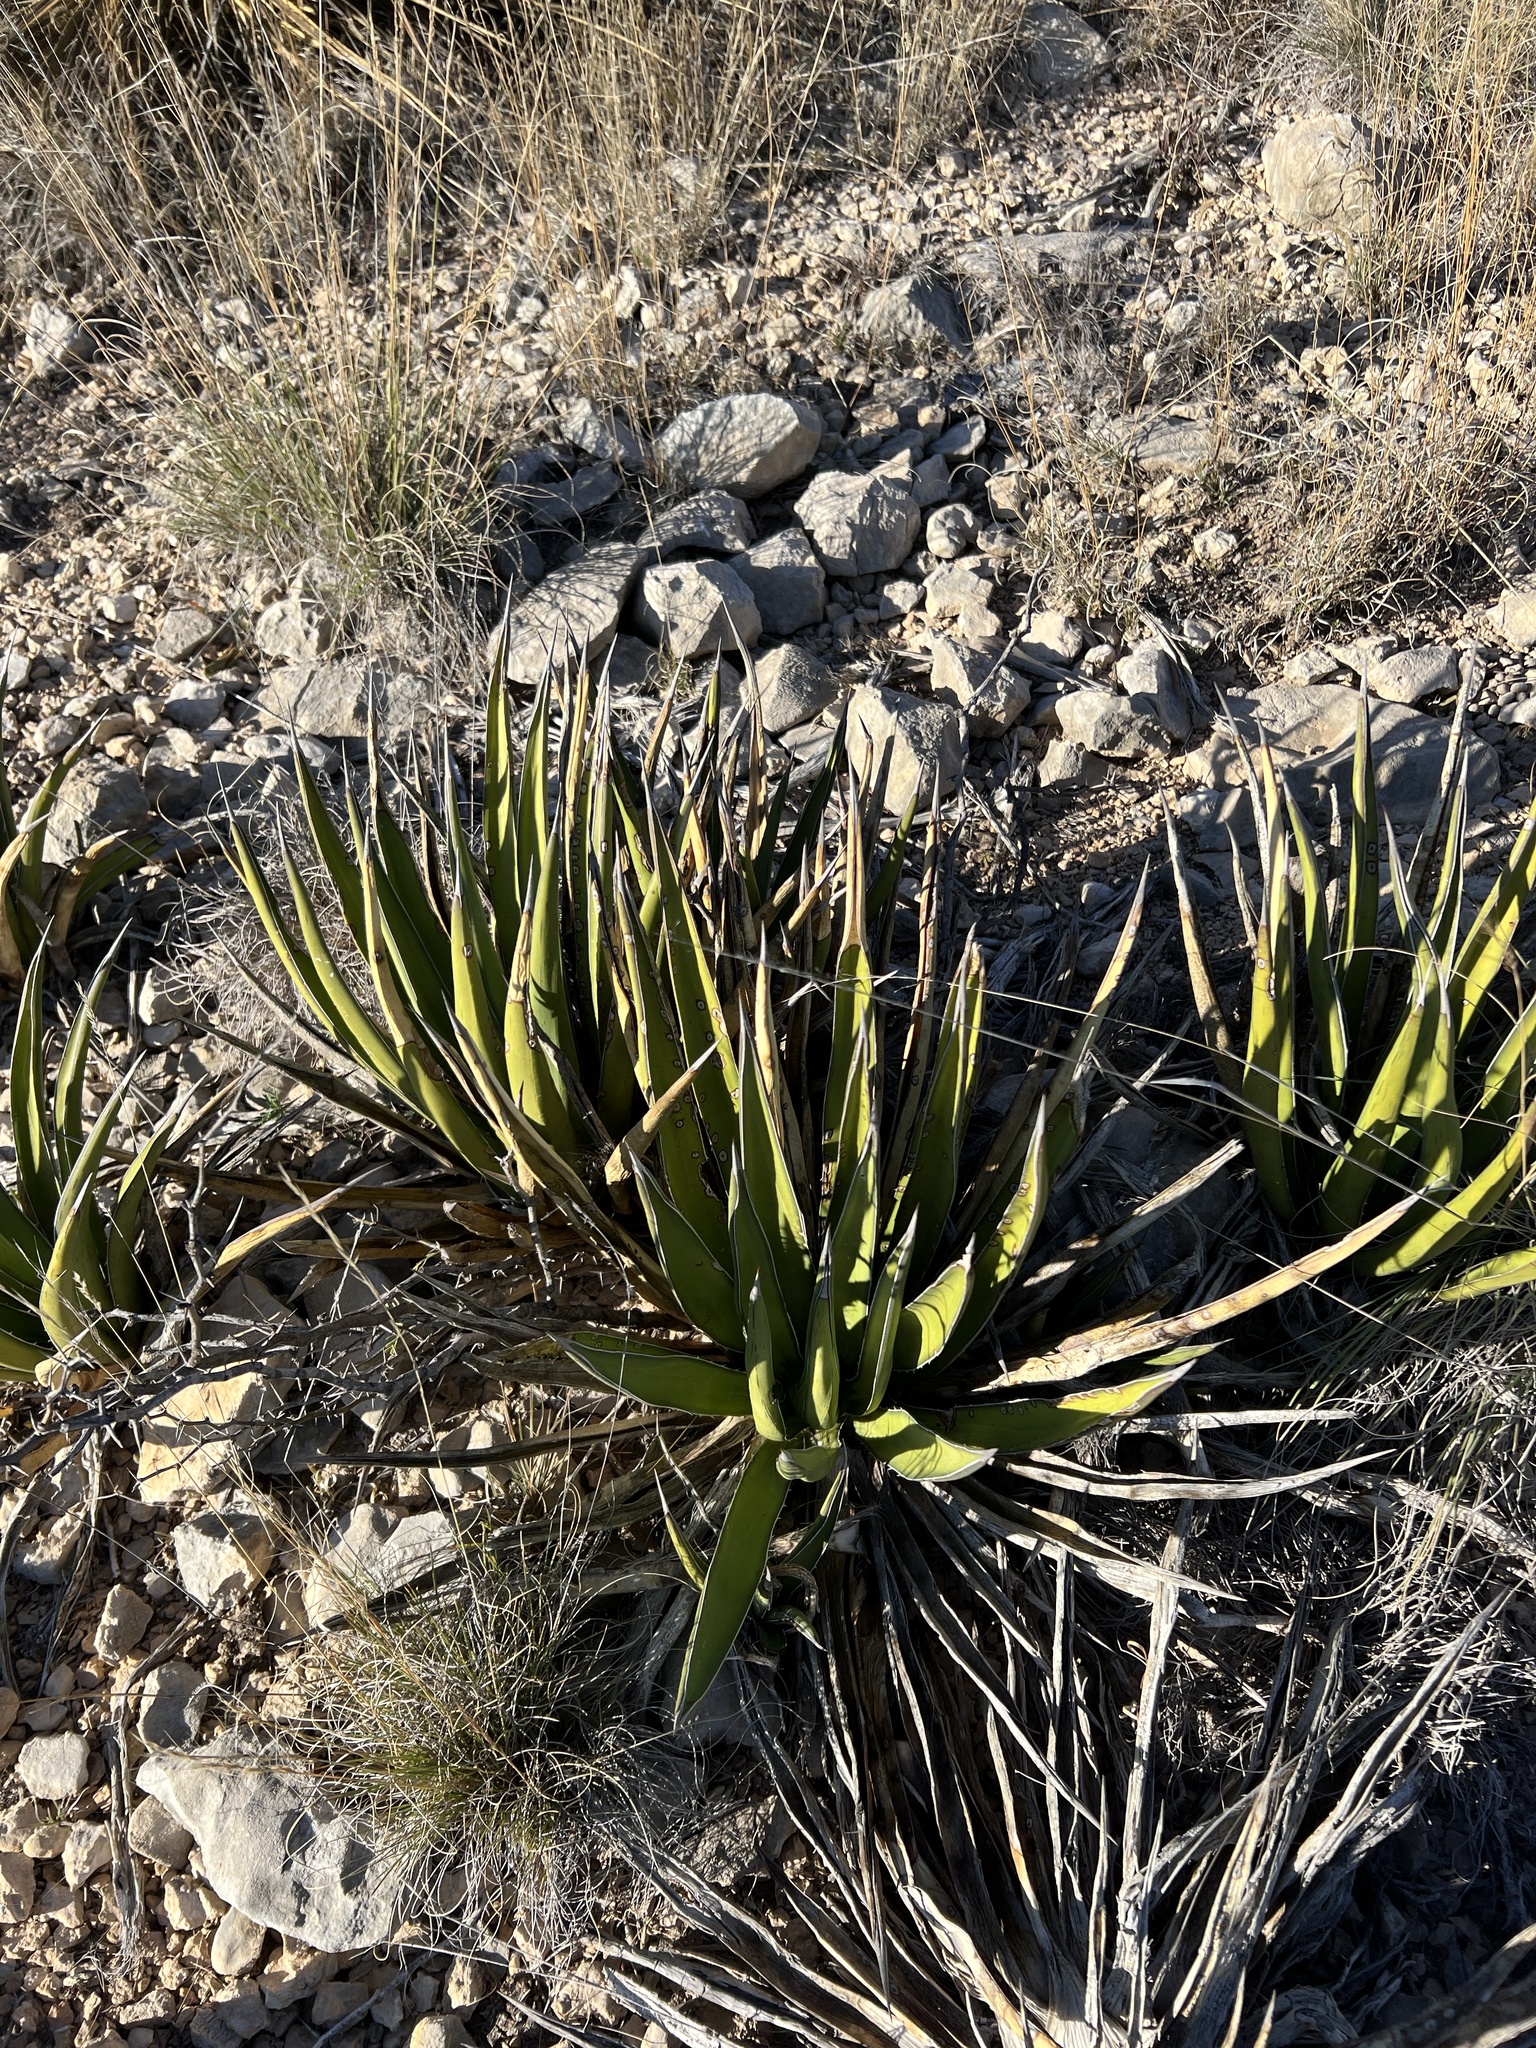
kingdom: Plantae
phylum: Tracheophyta
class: Liliopsida
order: Asparagales
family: Asparagaceae
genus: Agave
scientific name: Agave lechuguilla
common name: Lecheguilla agave
